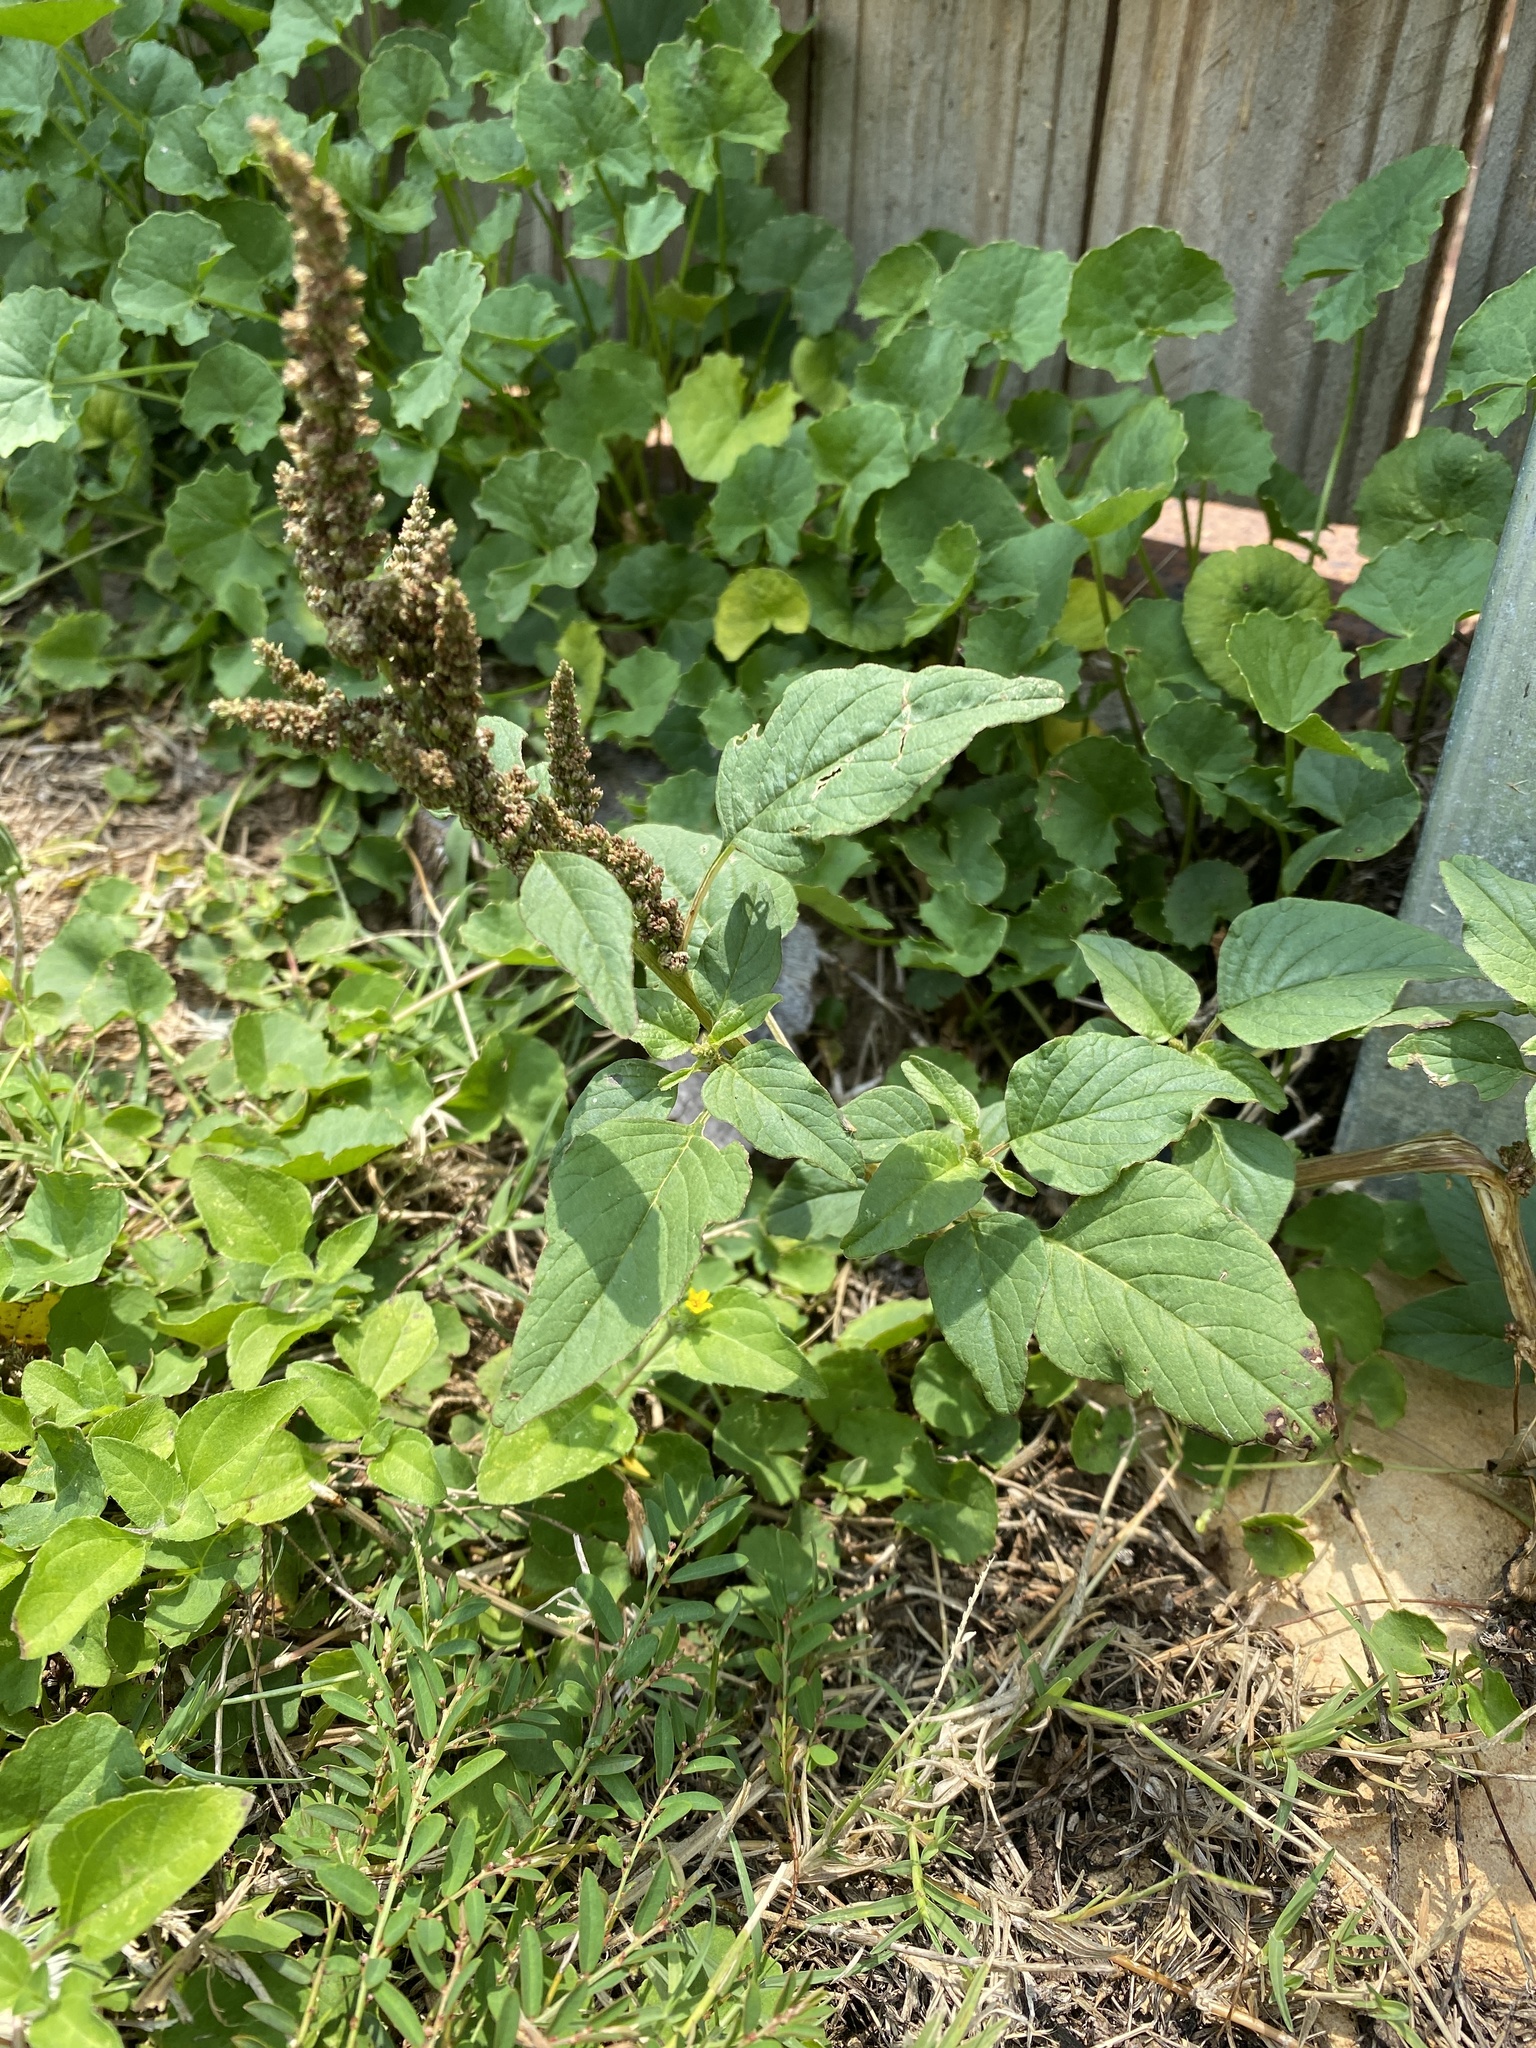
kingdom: Plantae
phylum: Tracheophyta
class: Magnoliopsida
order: Caryophyllales
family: Amaranthaceae
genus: Amaranthus
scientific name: Amaranthus viridis
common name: Slender amaranth
